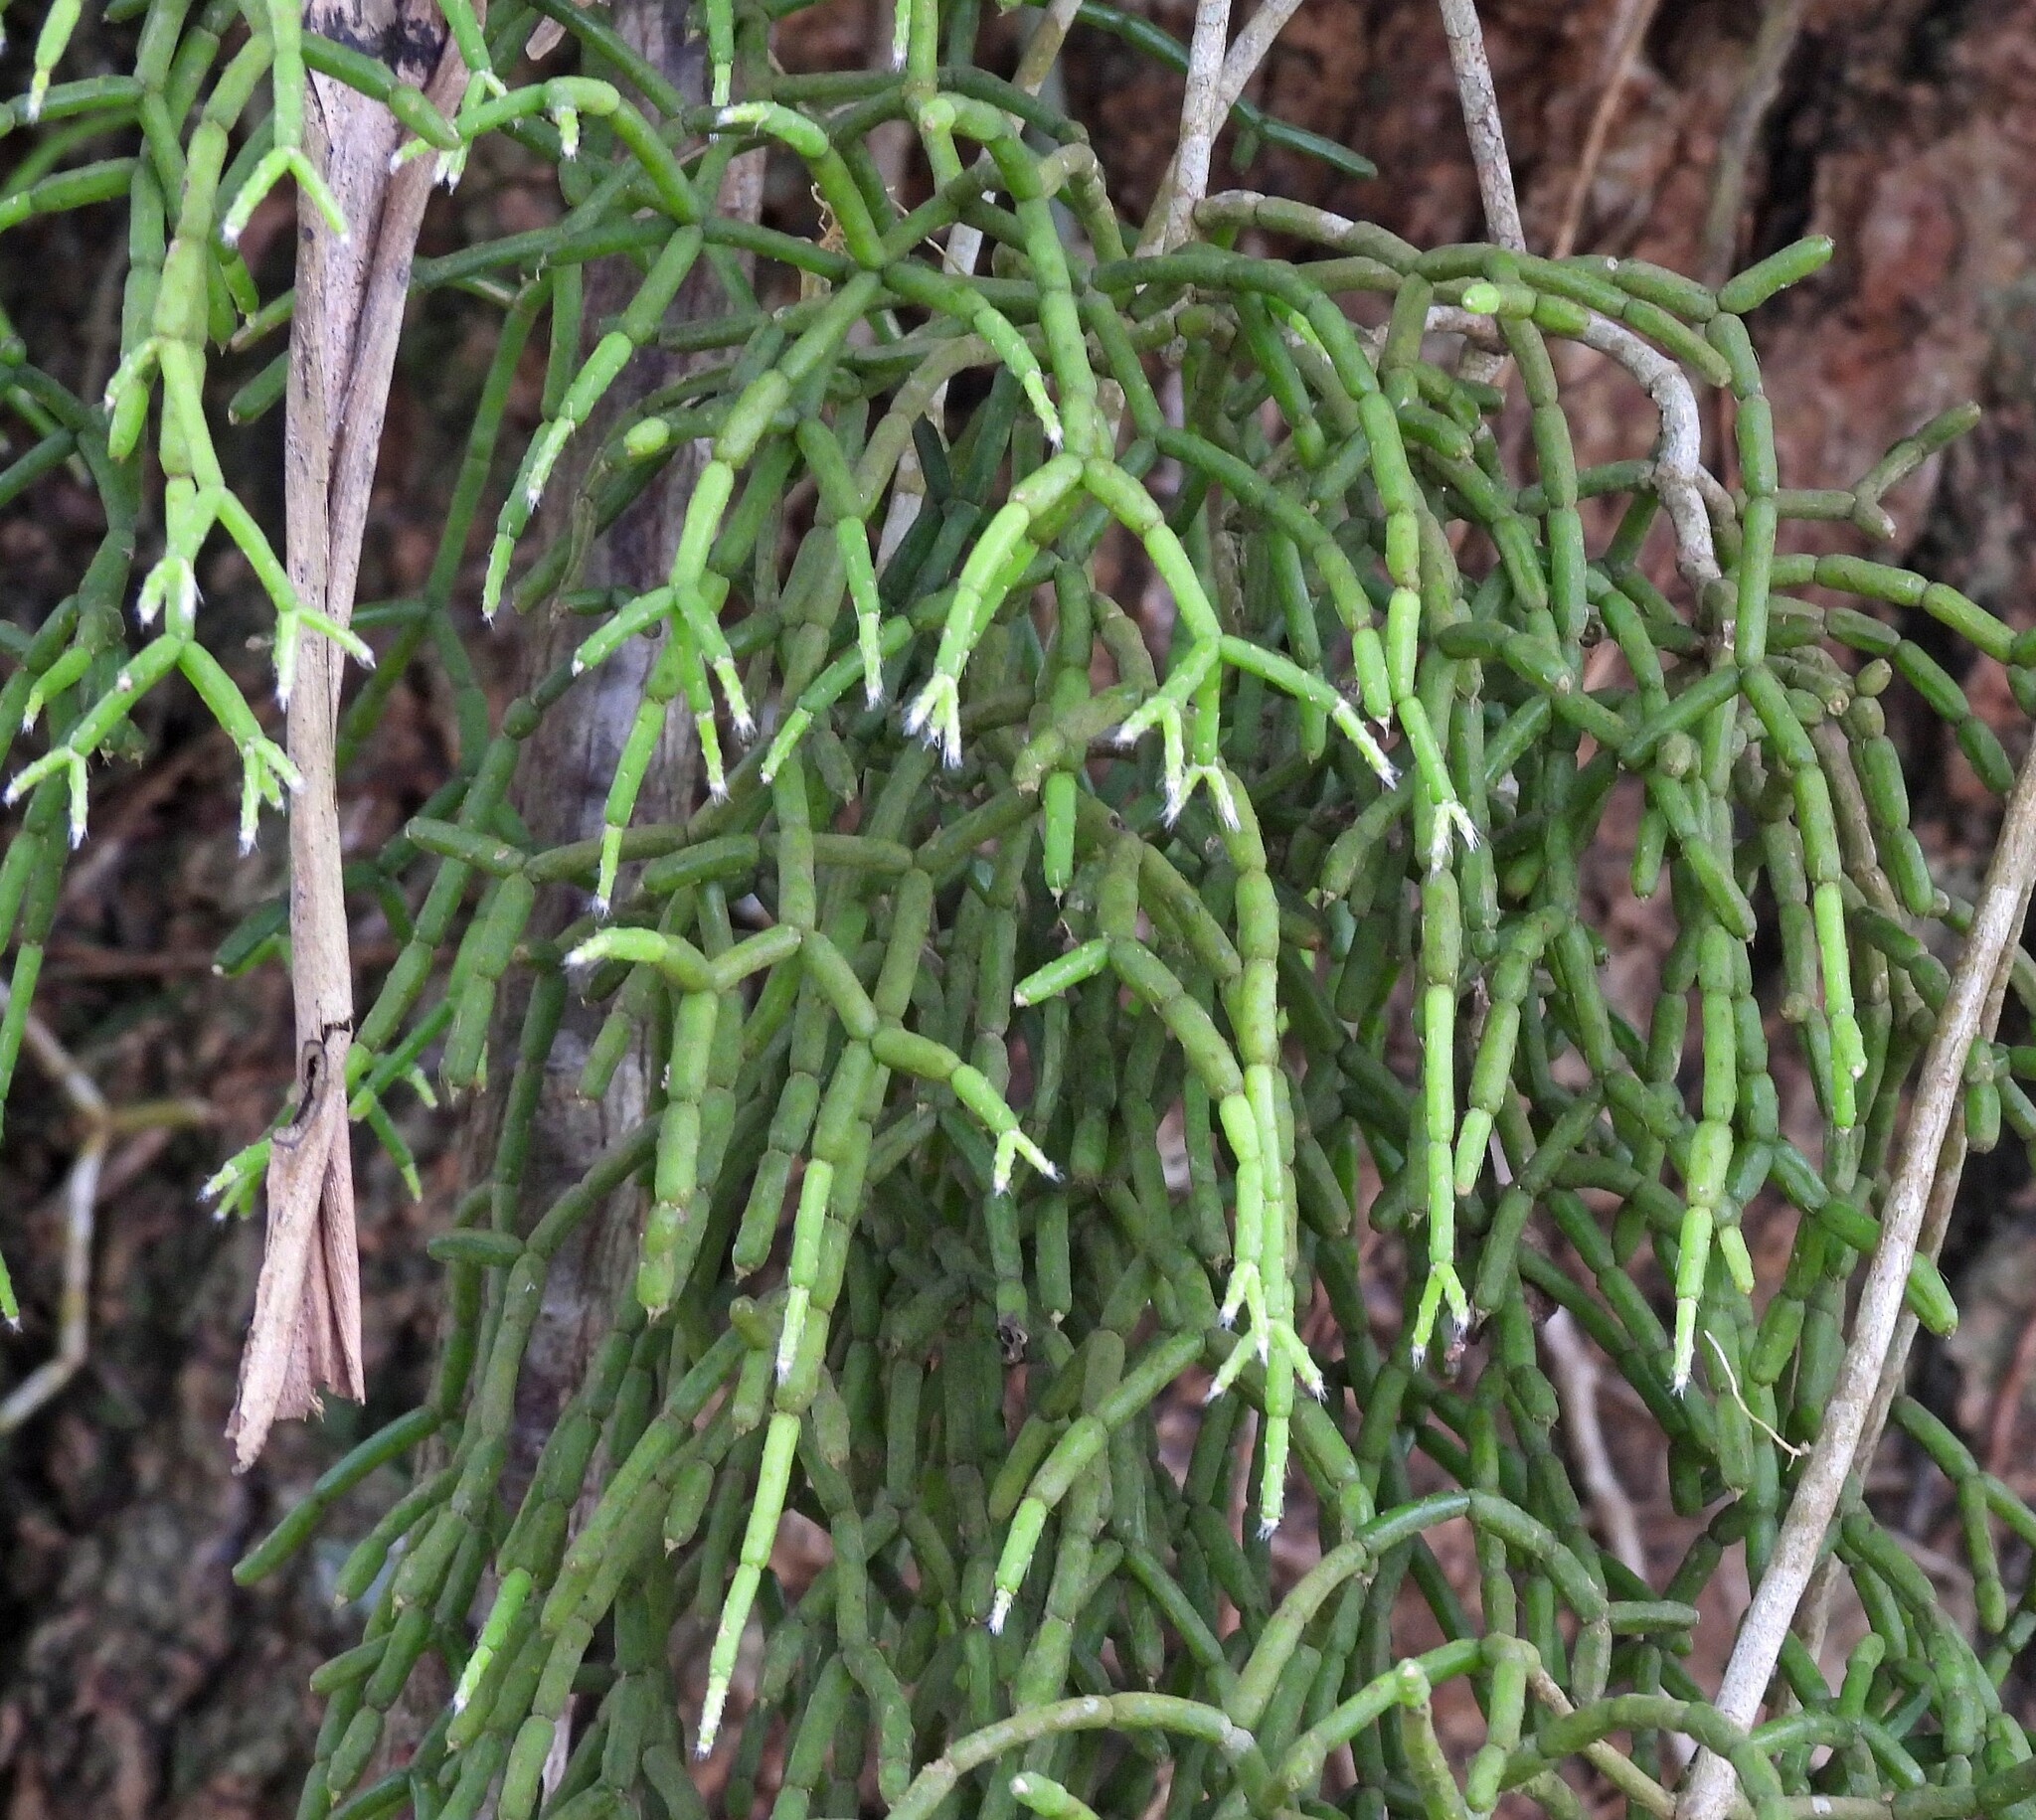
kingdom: Plantae
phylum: Tracheophyta
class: Magnoliopsida
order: Caryophyllales
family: Cactaceae
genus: Rhipsalis
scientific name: Rhipsalis cereuscula
